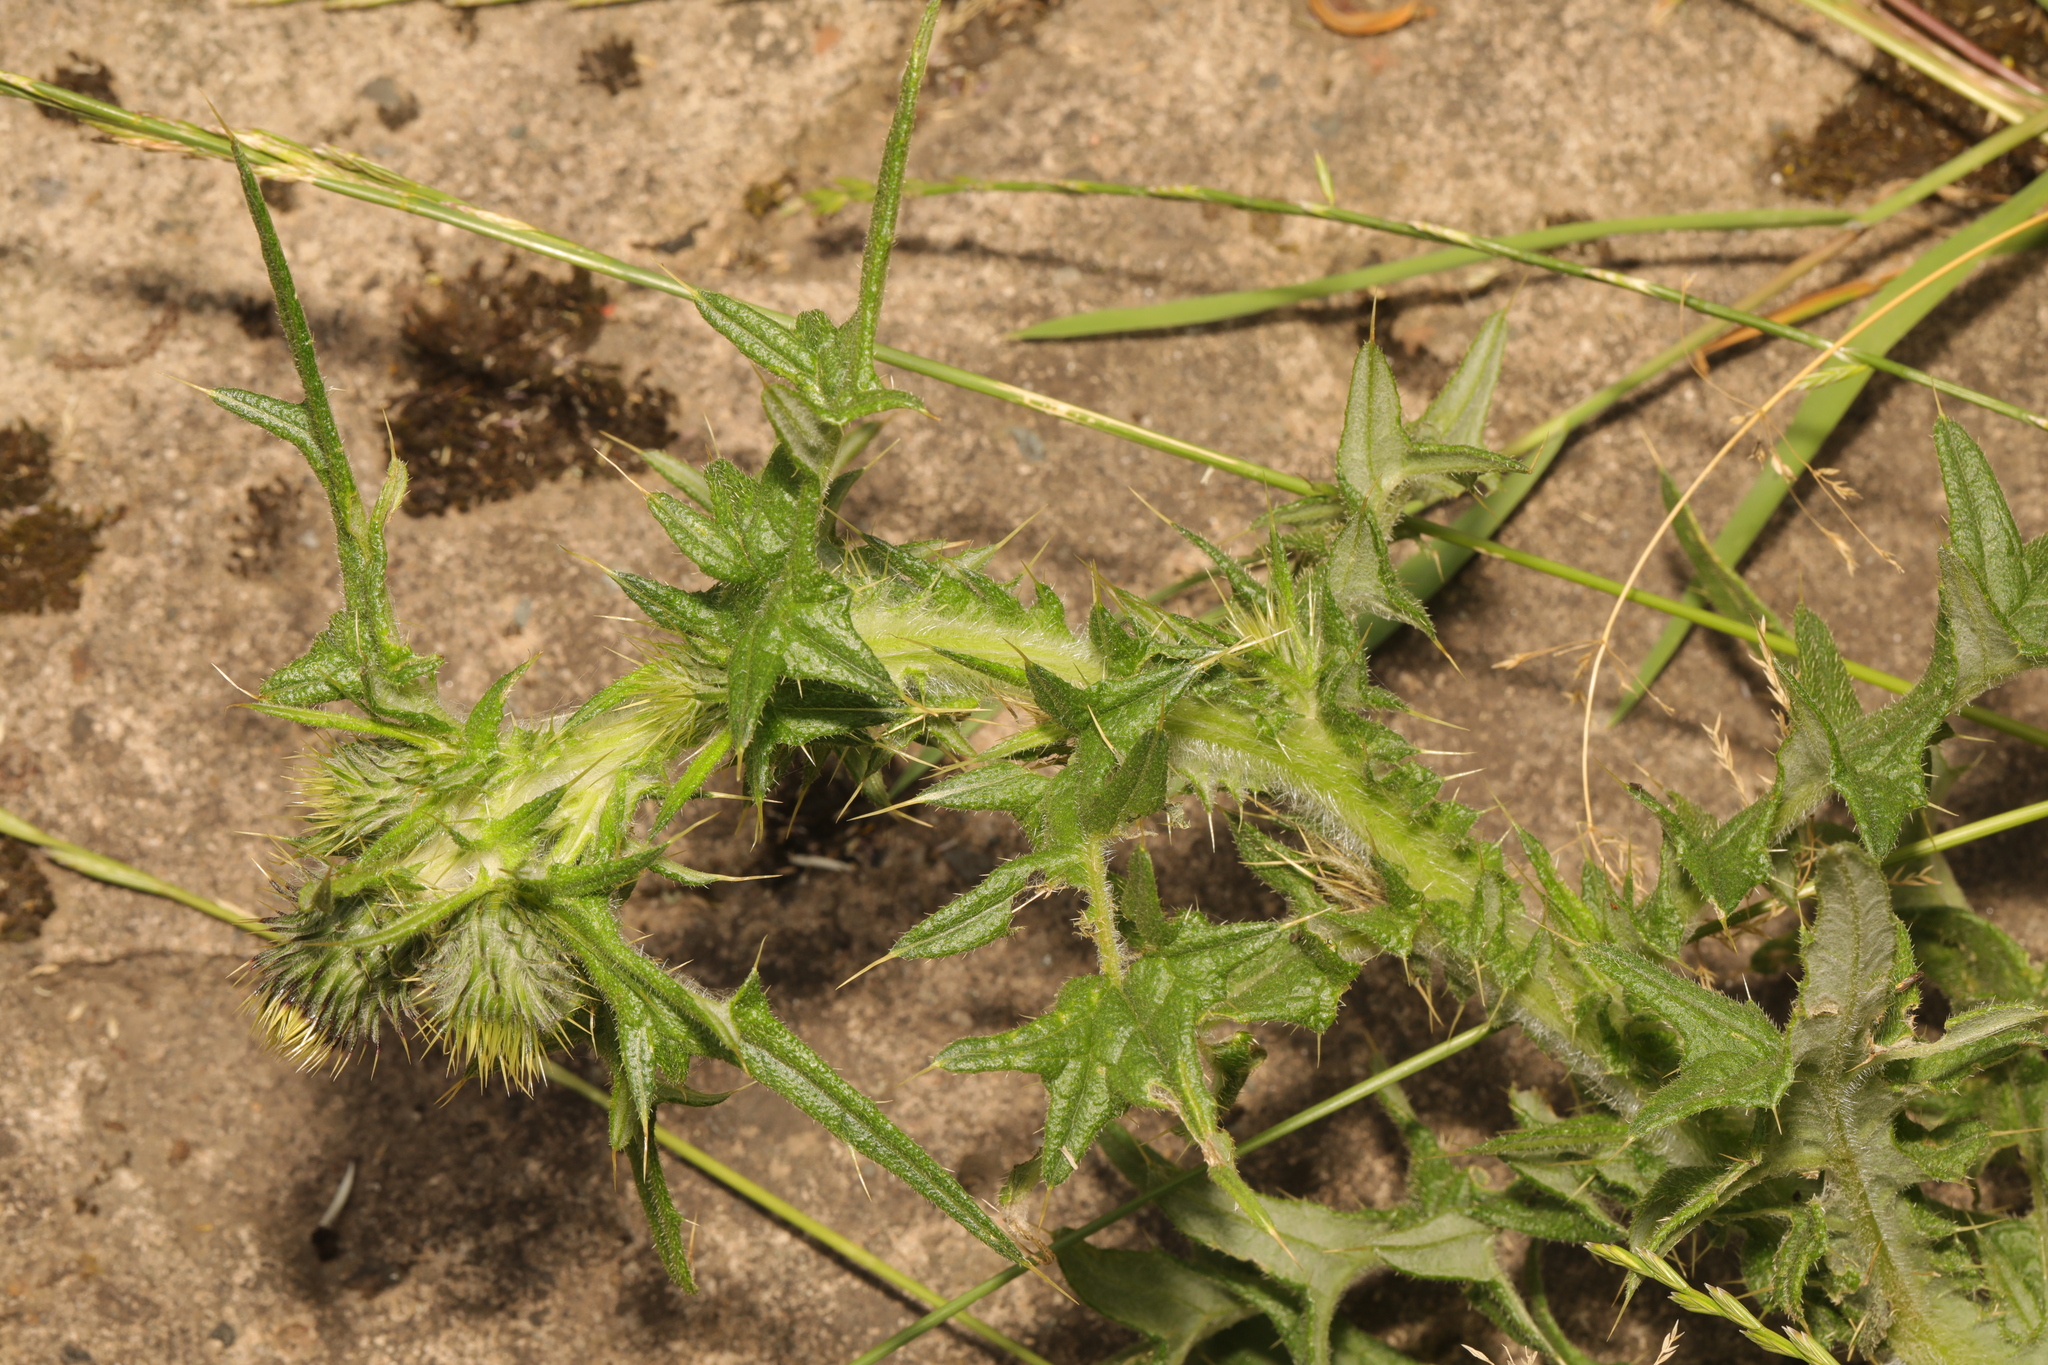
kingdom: Plantae
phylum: Tracheophyta
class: Magnoliopsida
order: Asterales
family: Asteraceae
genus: Cirsium
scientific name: Cirsium vulgare
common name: Bull thistle
